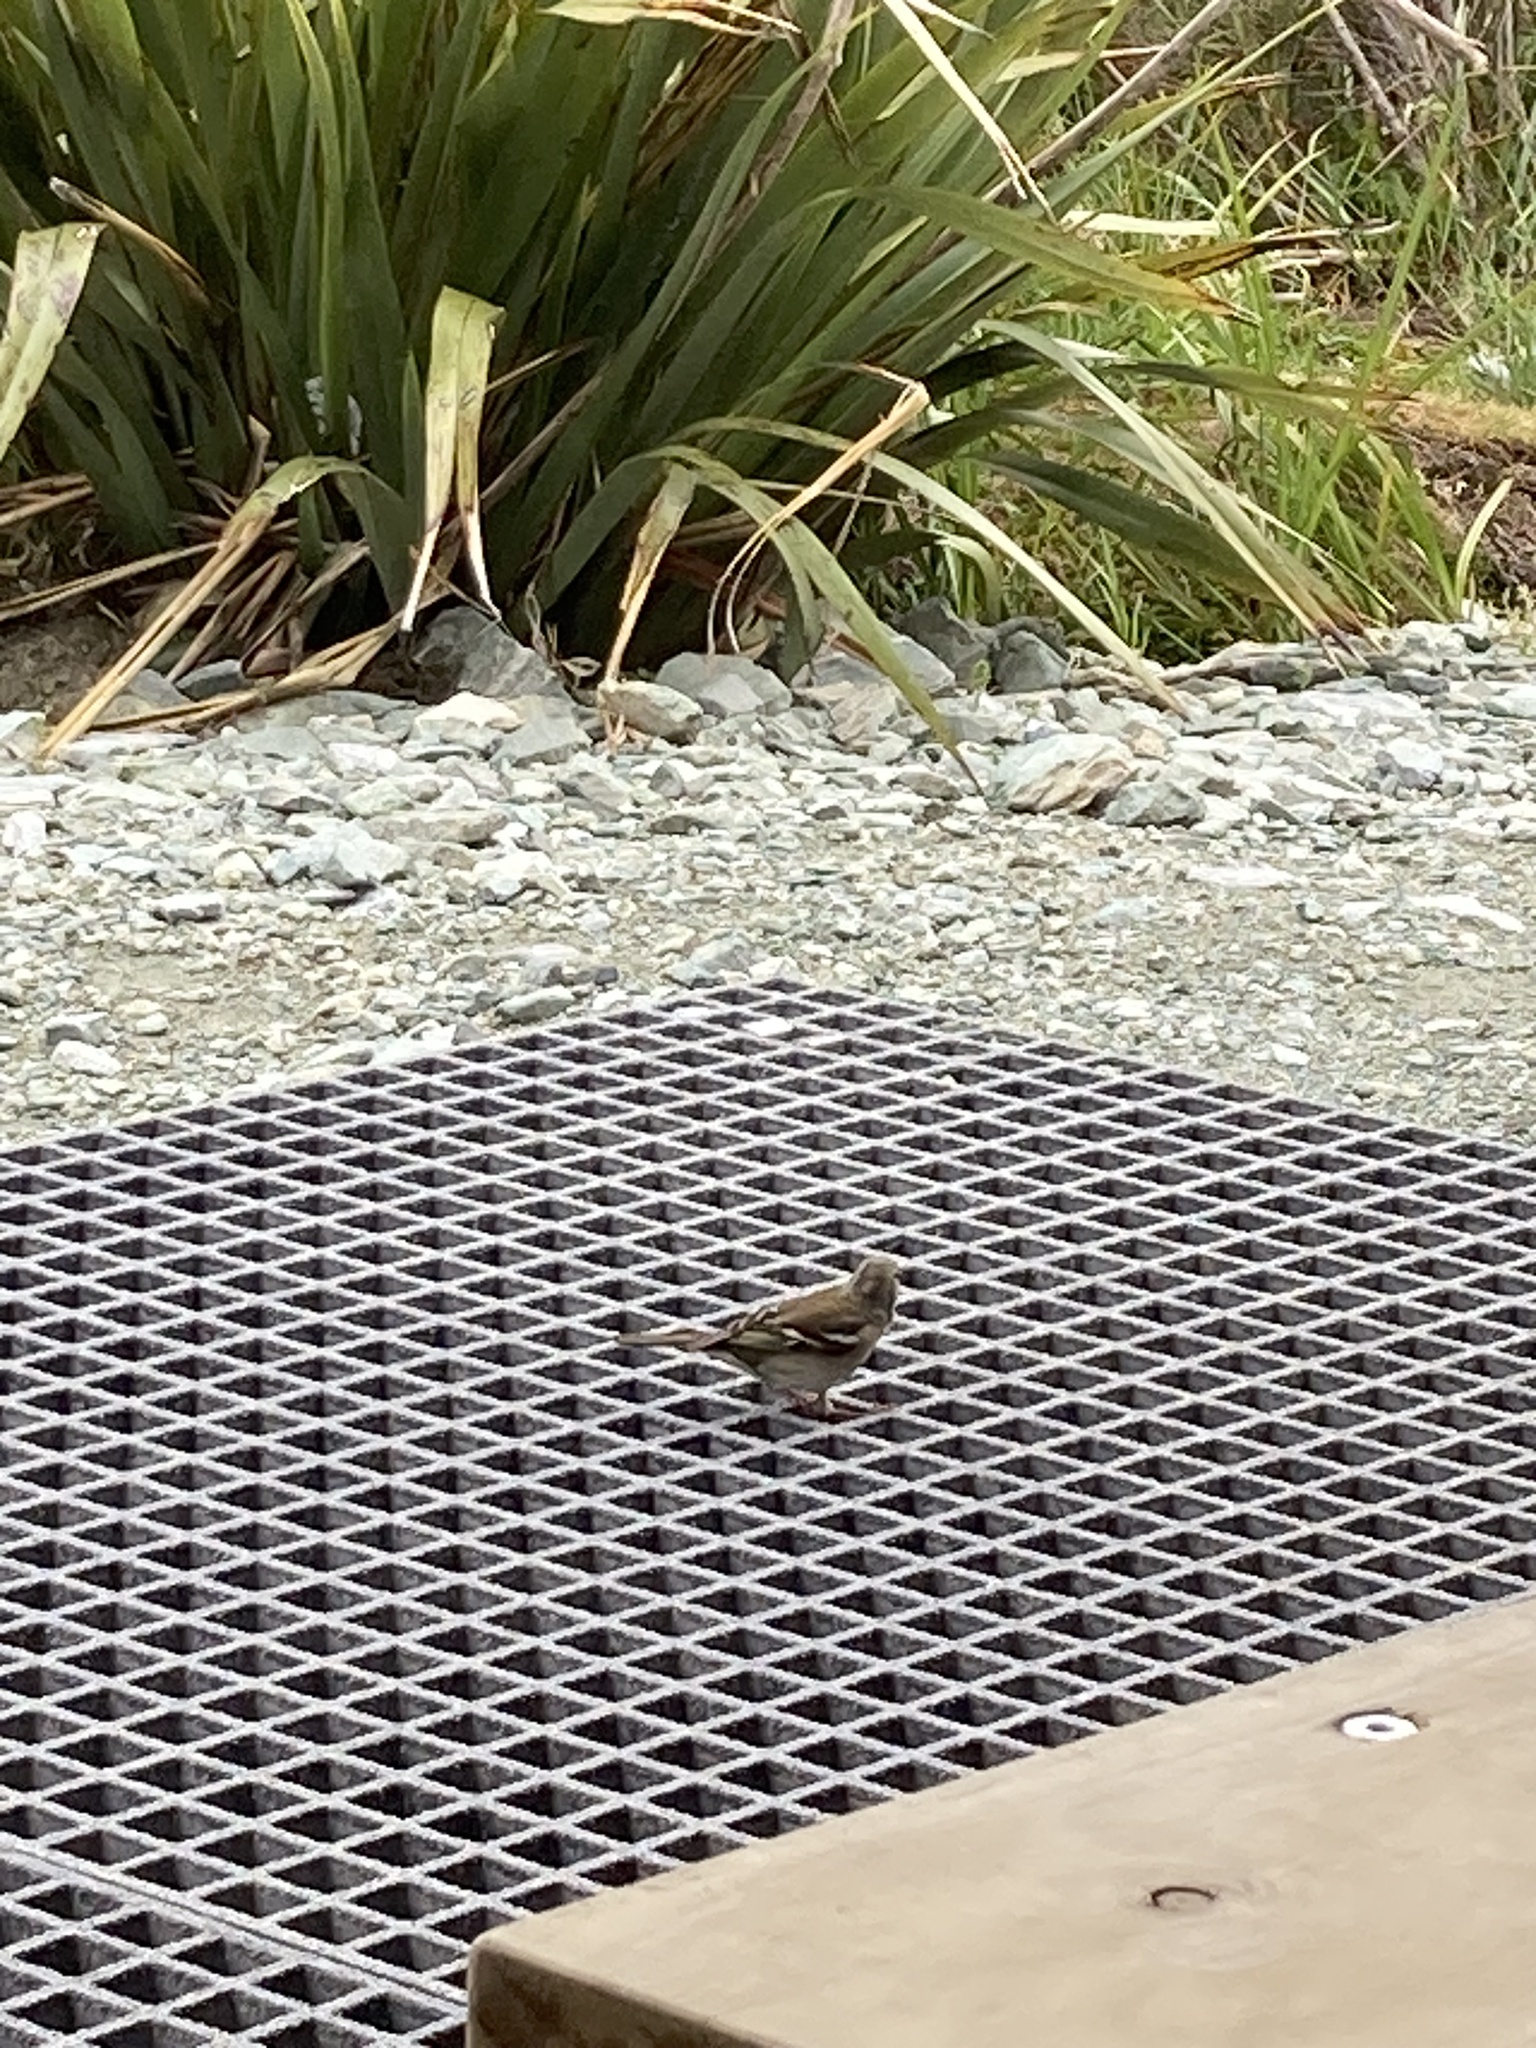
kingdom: Animalia
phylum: Chordata
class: Aves
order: Passeriformes
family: Fringillidae
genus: Fringilla
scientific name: Fringilla coelebs
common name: Common chaffinch
